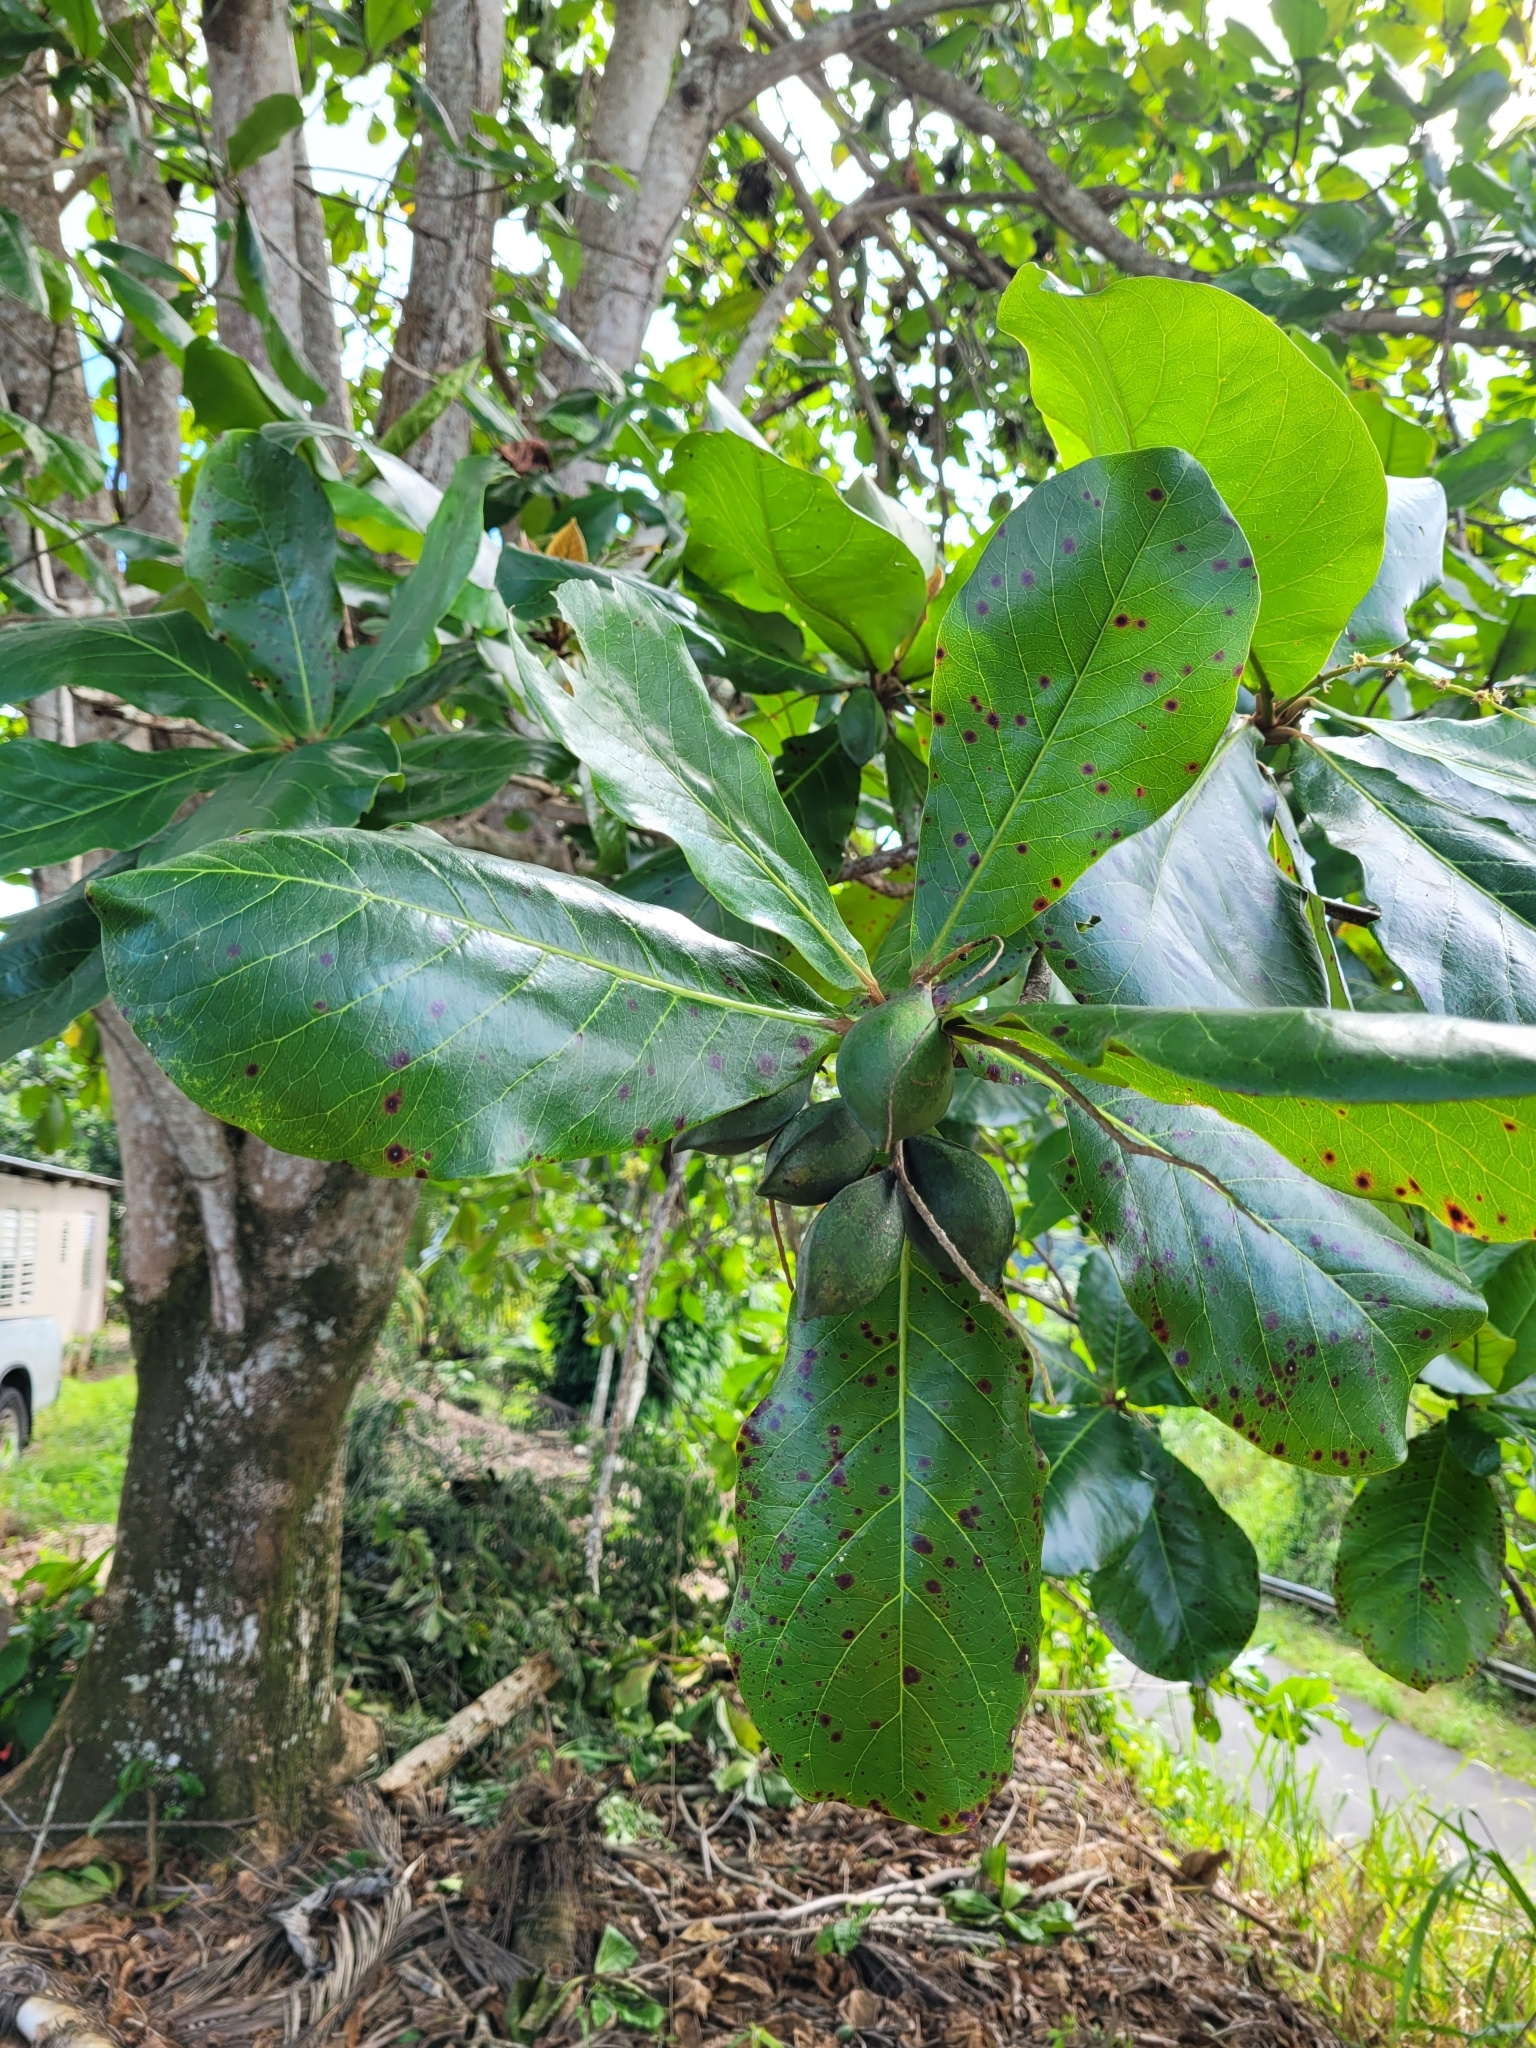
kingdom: Plantae
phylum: Tracheophyta
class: Magnoliopsida
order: Myrtales
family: Combretaceae
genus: Terminalia
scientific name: Terminalia catappa
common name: Tropical almond
